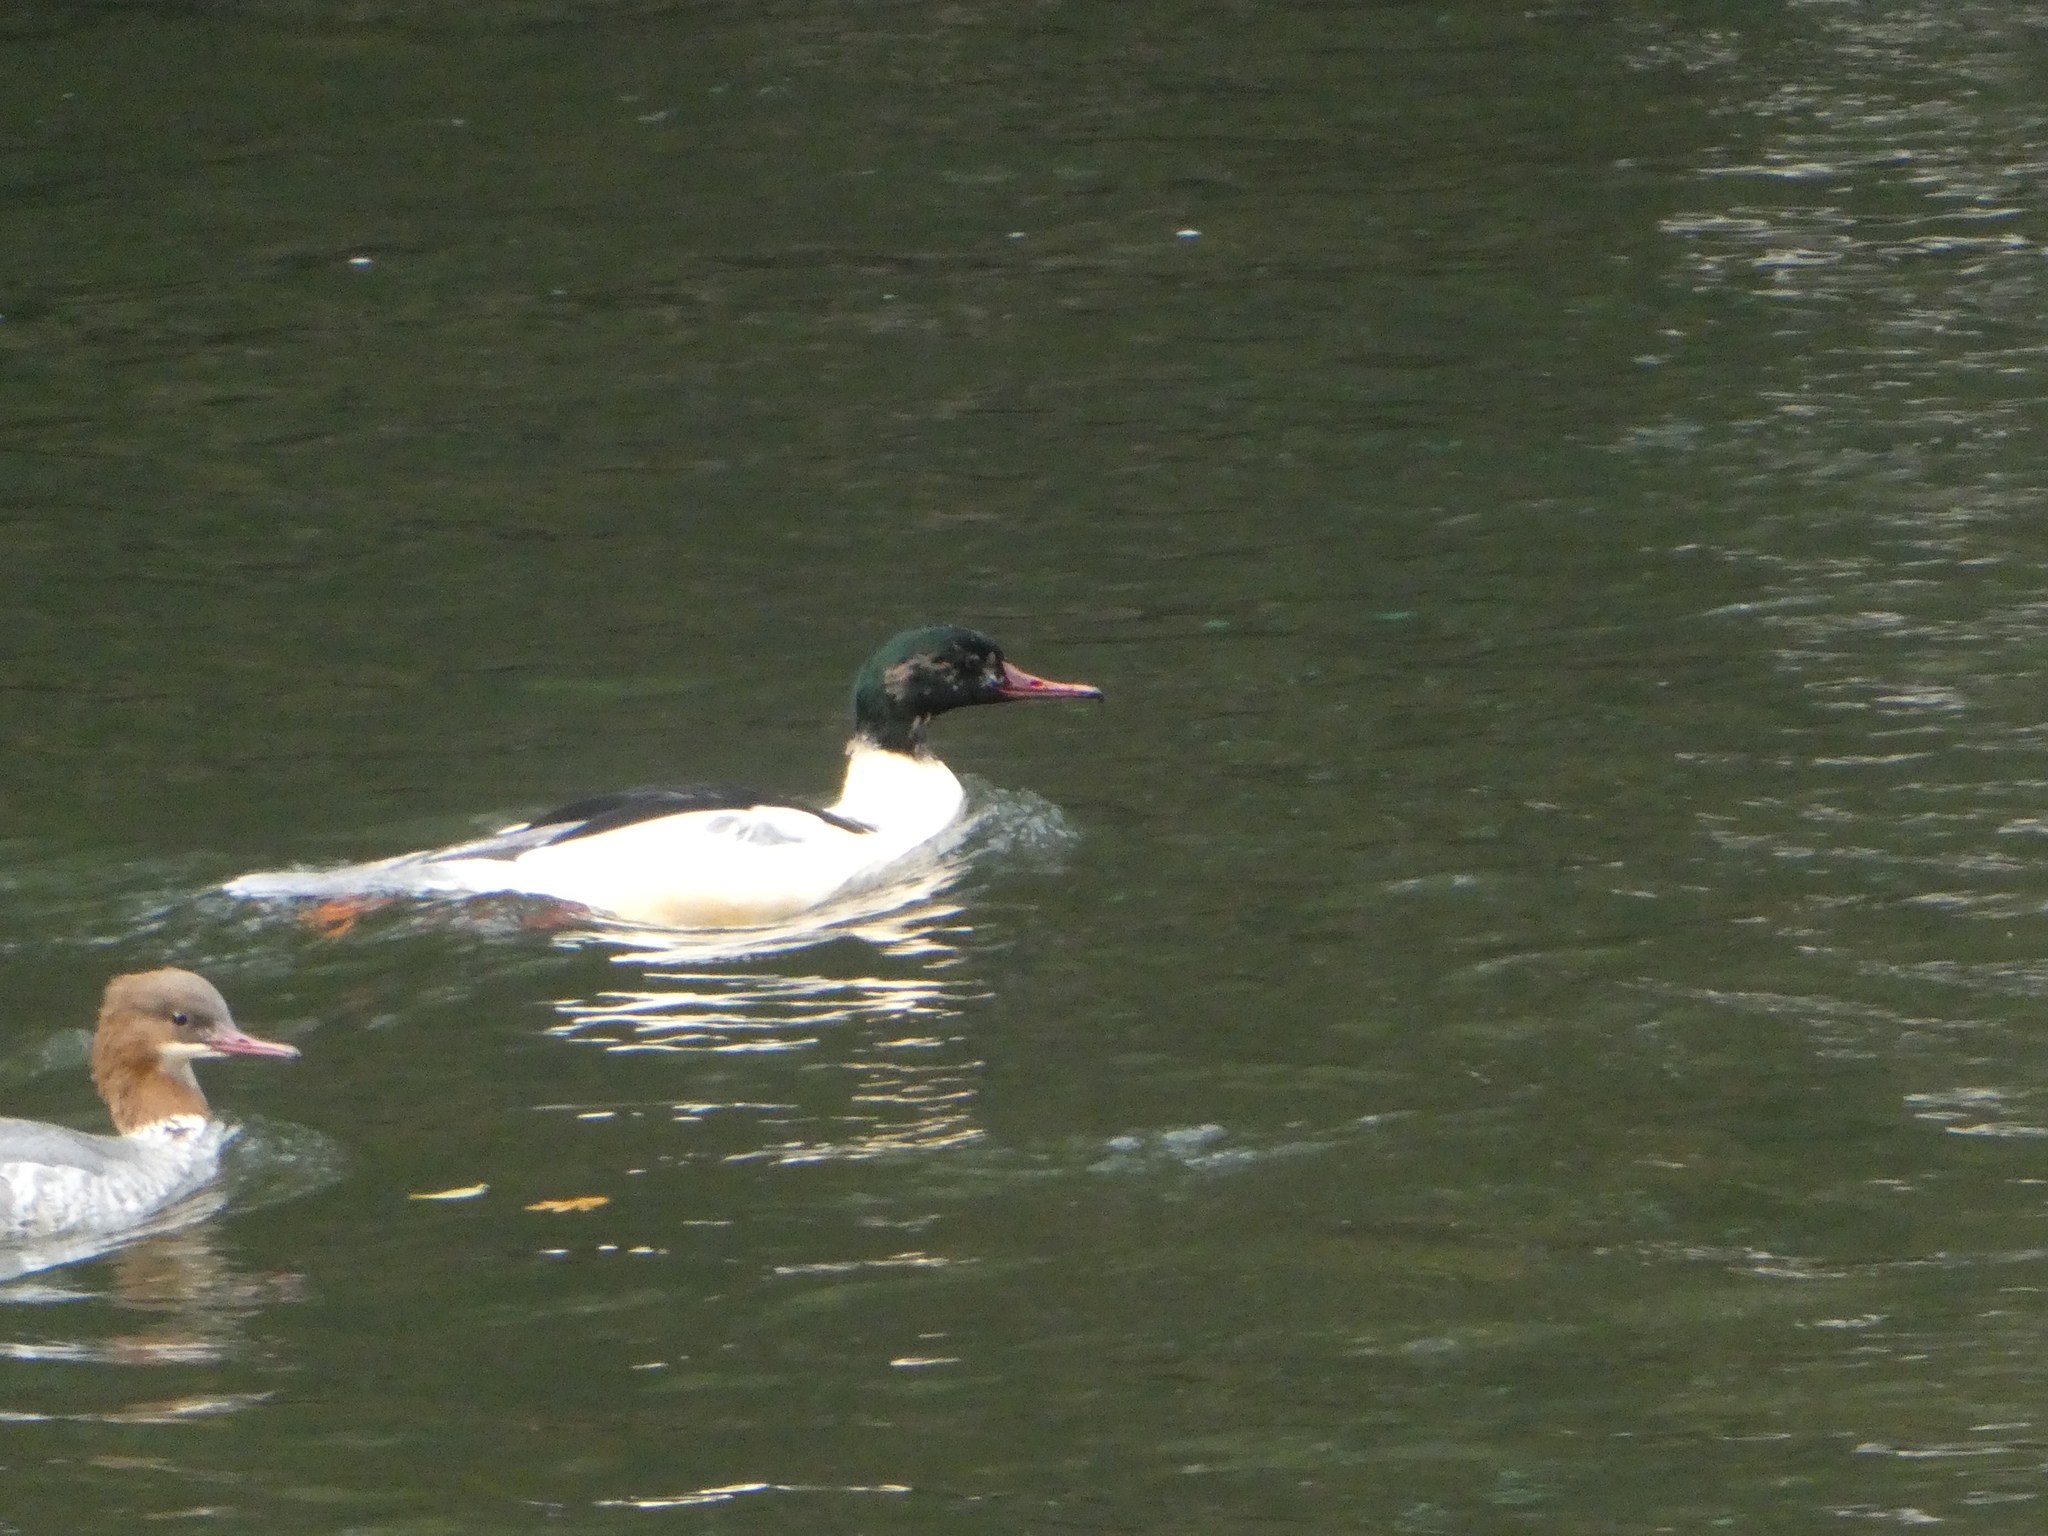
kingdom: Animalia
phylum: Chordata
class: Aves
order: Anseriformes
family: Anatidae
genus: Mergus
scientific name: Mergus merganser
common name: Common merganser
